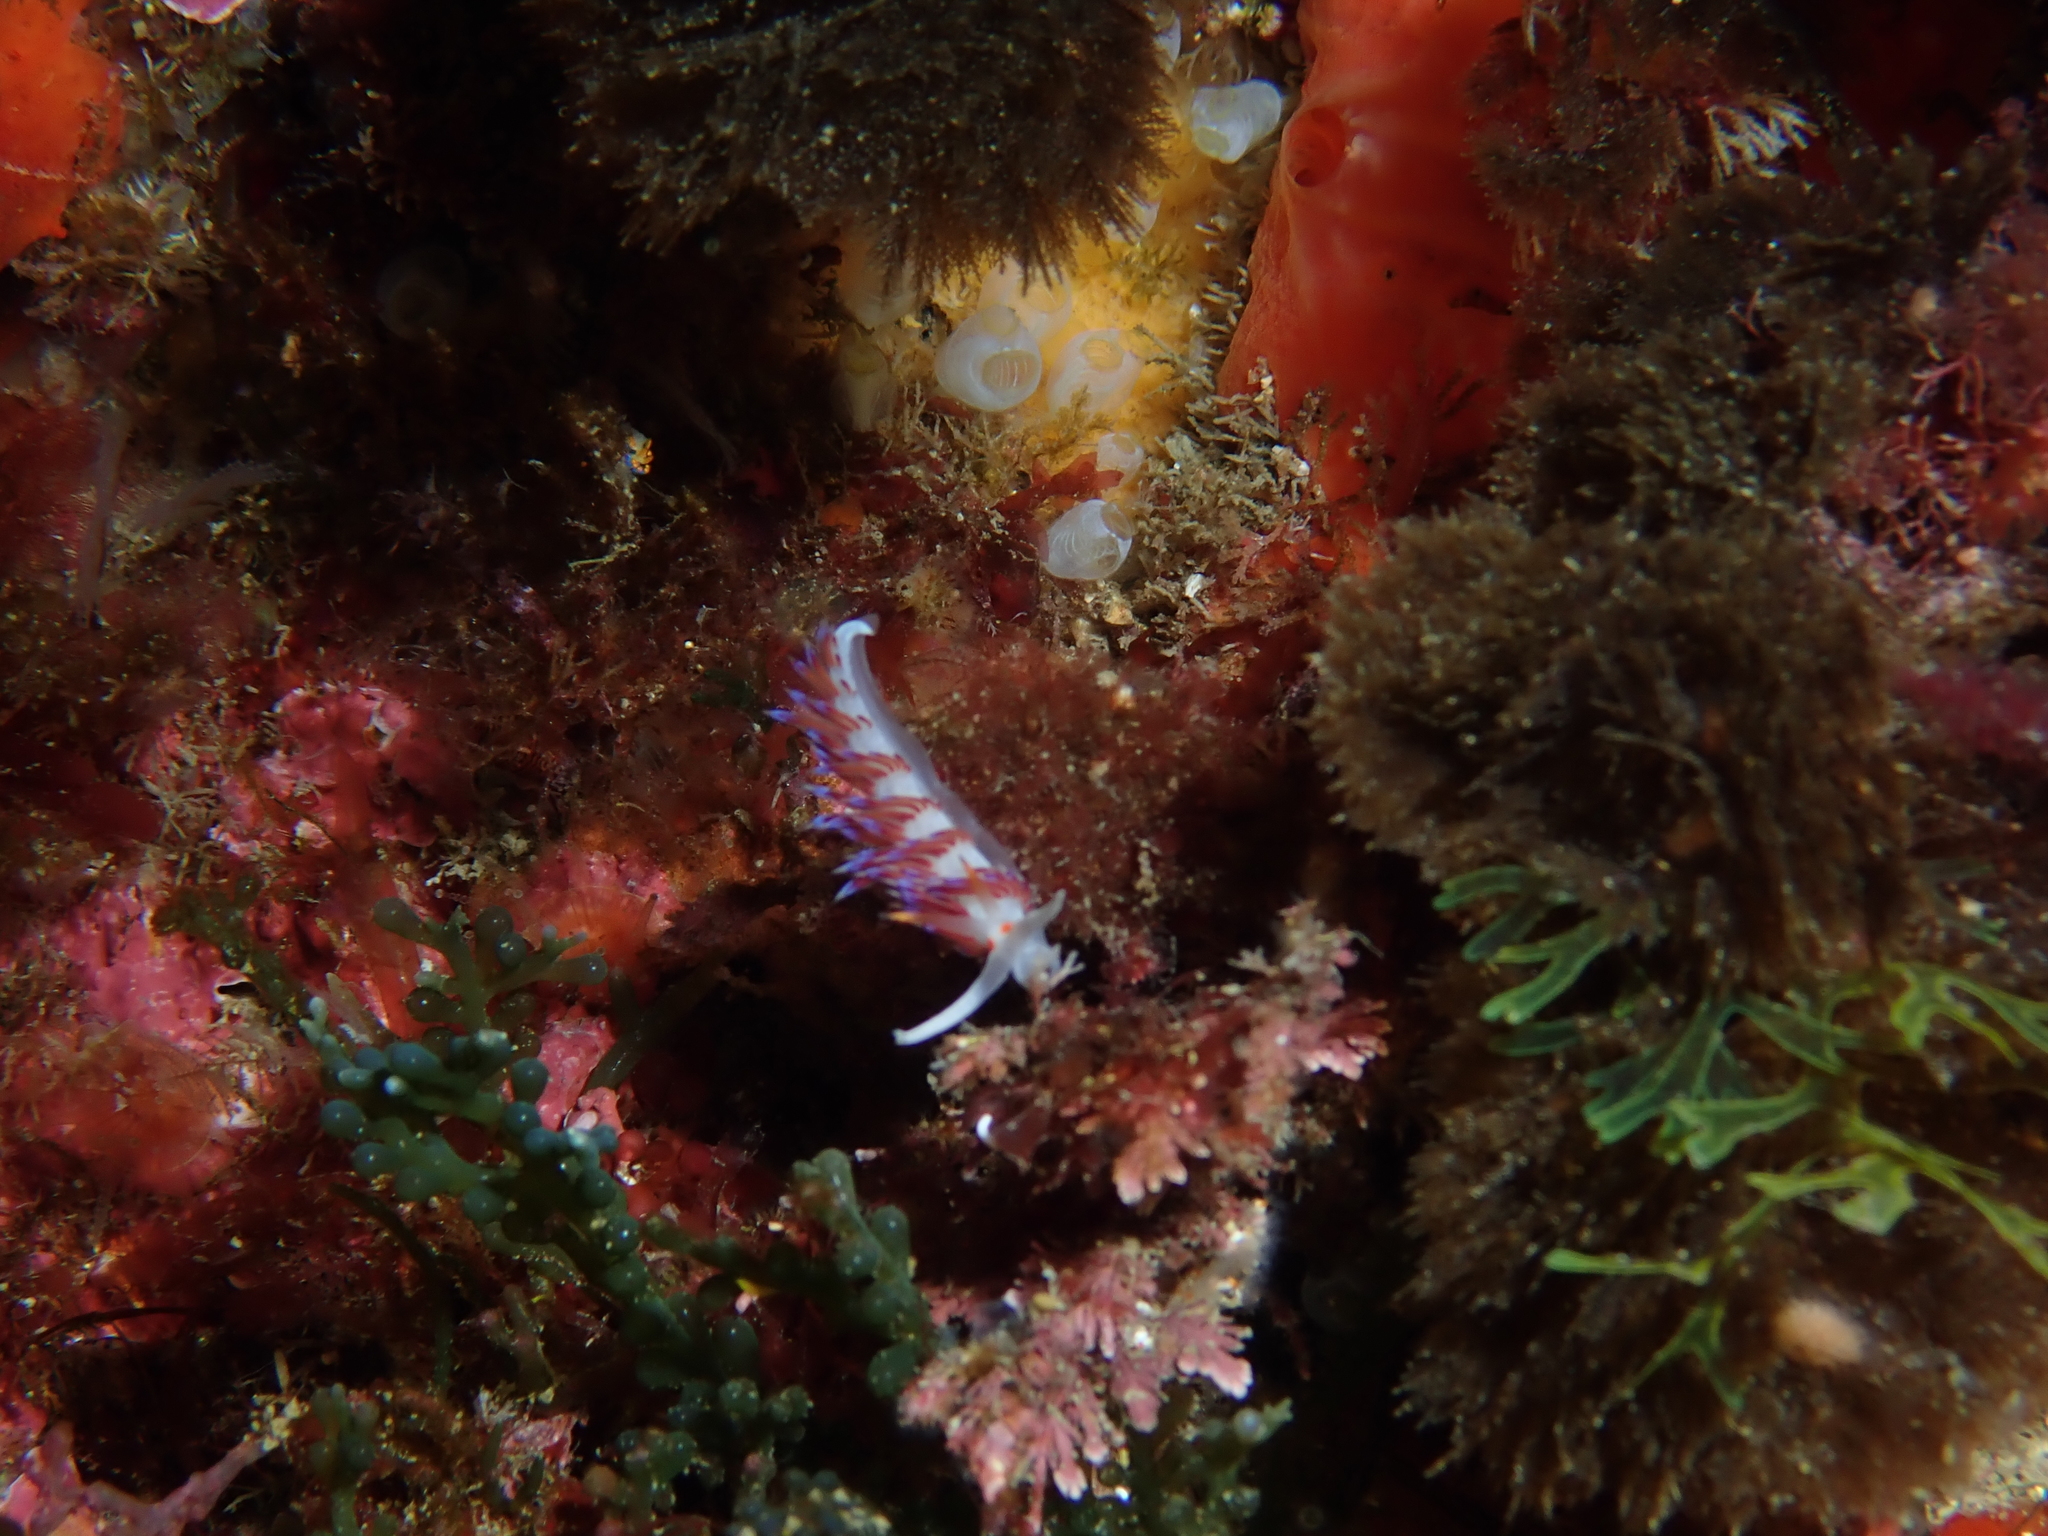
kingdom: Animalia
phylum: Mollusca
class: Gastropoda
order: Nudibranchia
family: Facelinidae
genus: Cratena
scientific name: Cratena peregrina
